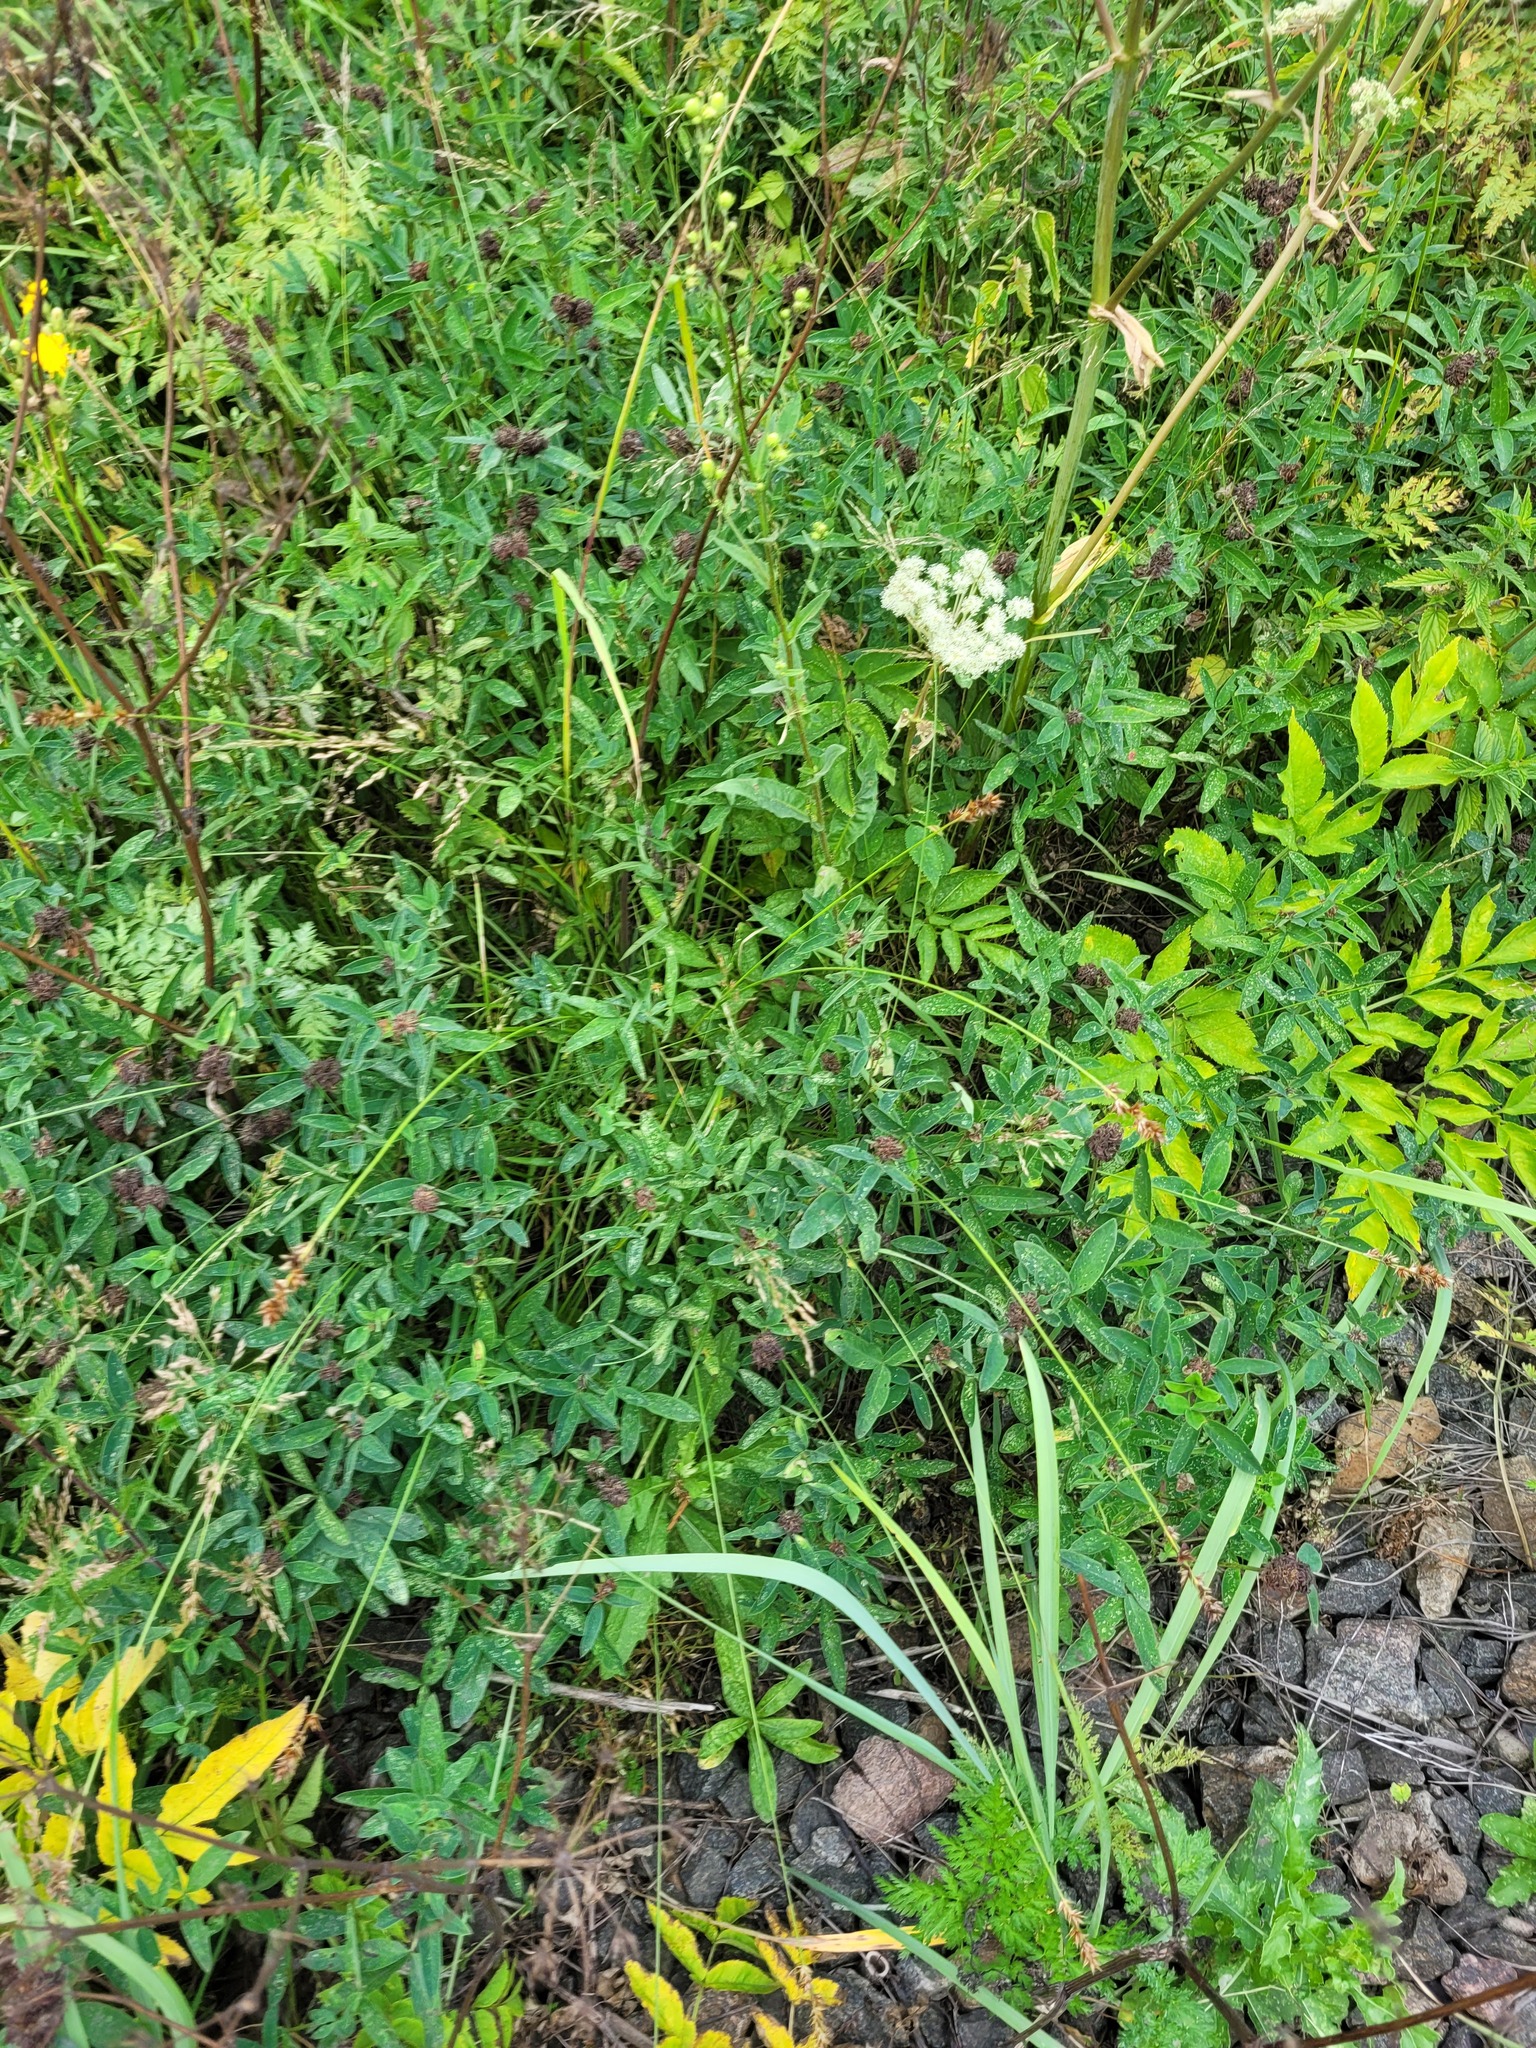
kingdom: Plantae
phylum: Tracheophyta
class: Magnoliopsida
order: Fabales
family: Fabaceae
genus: Trifolium
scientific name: Trifolium medium
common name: Zigzag clover
